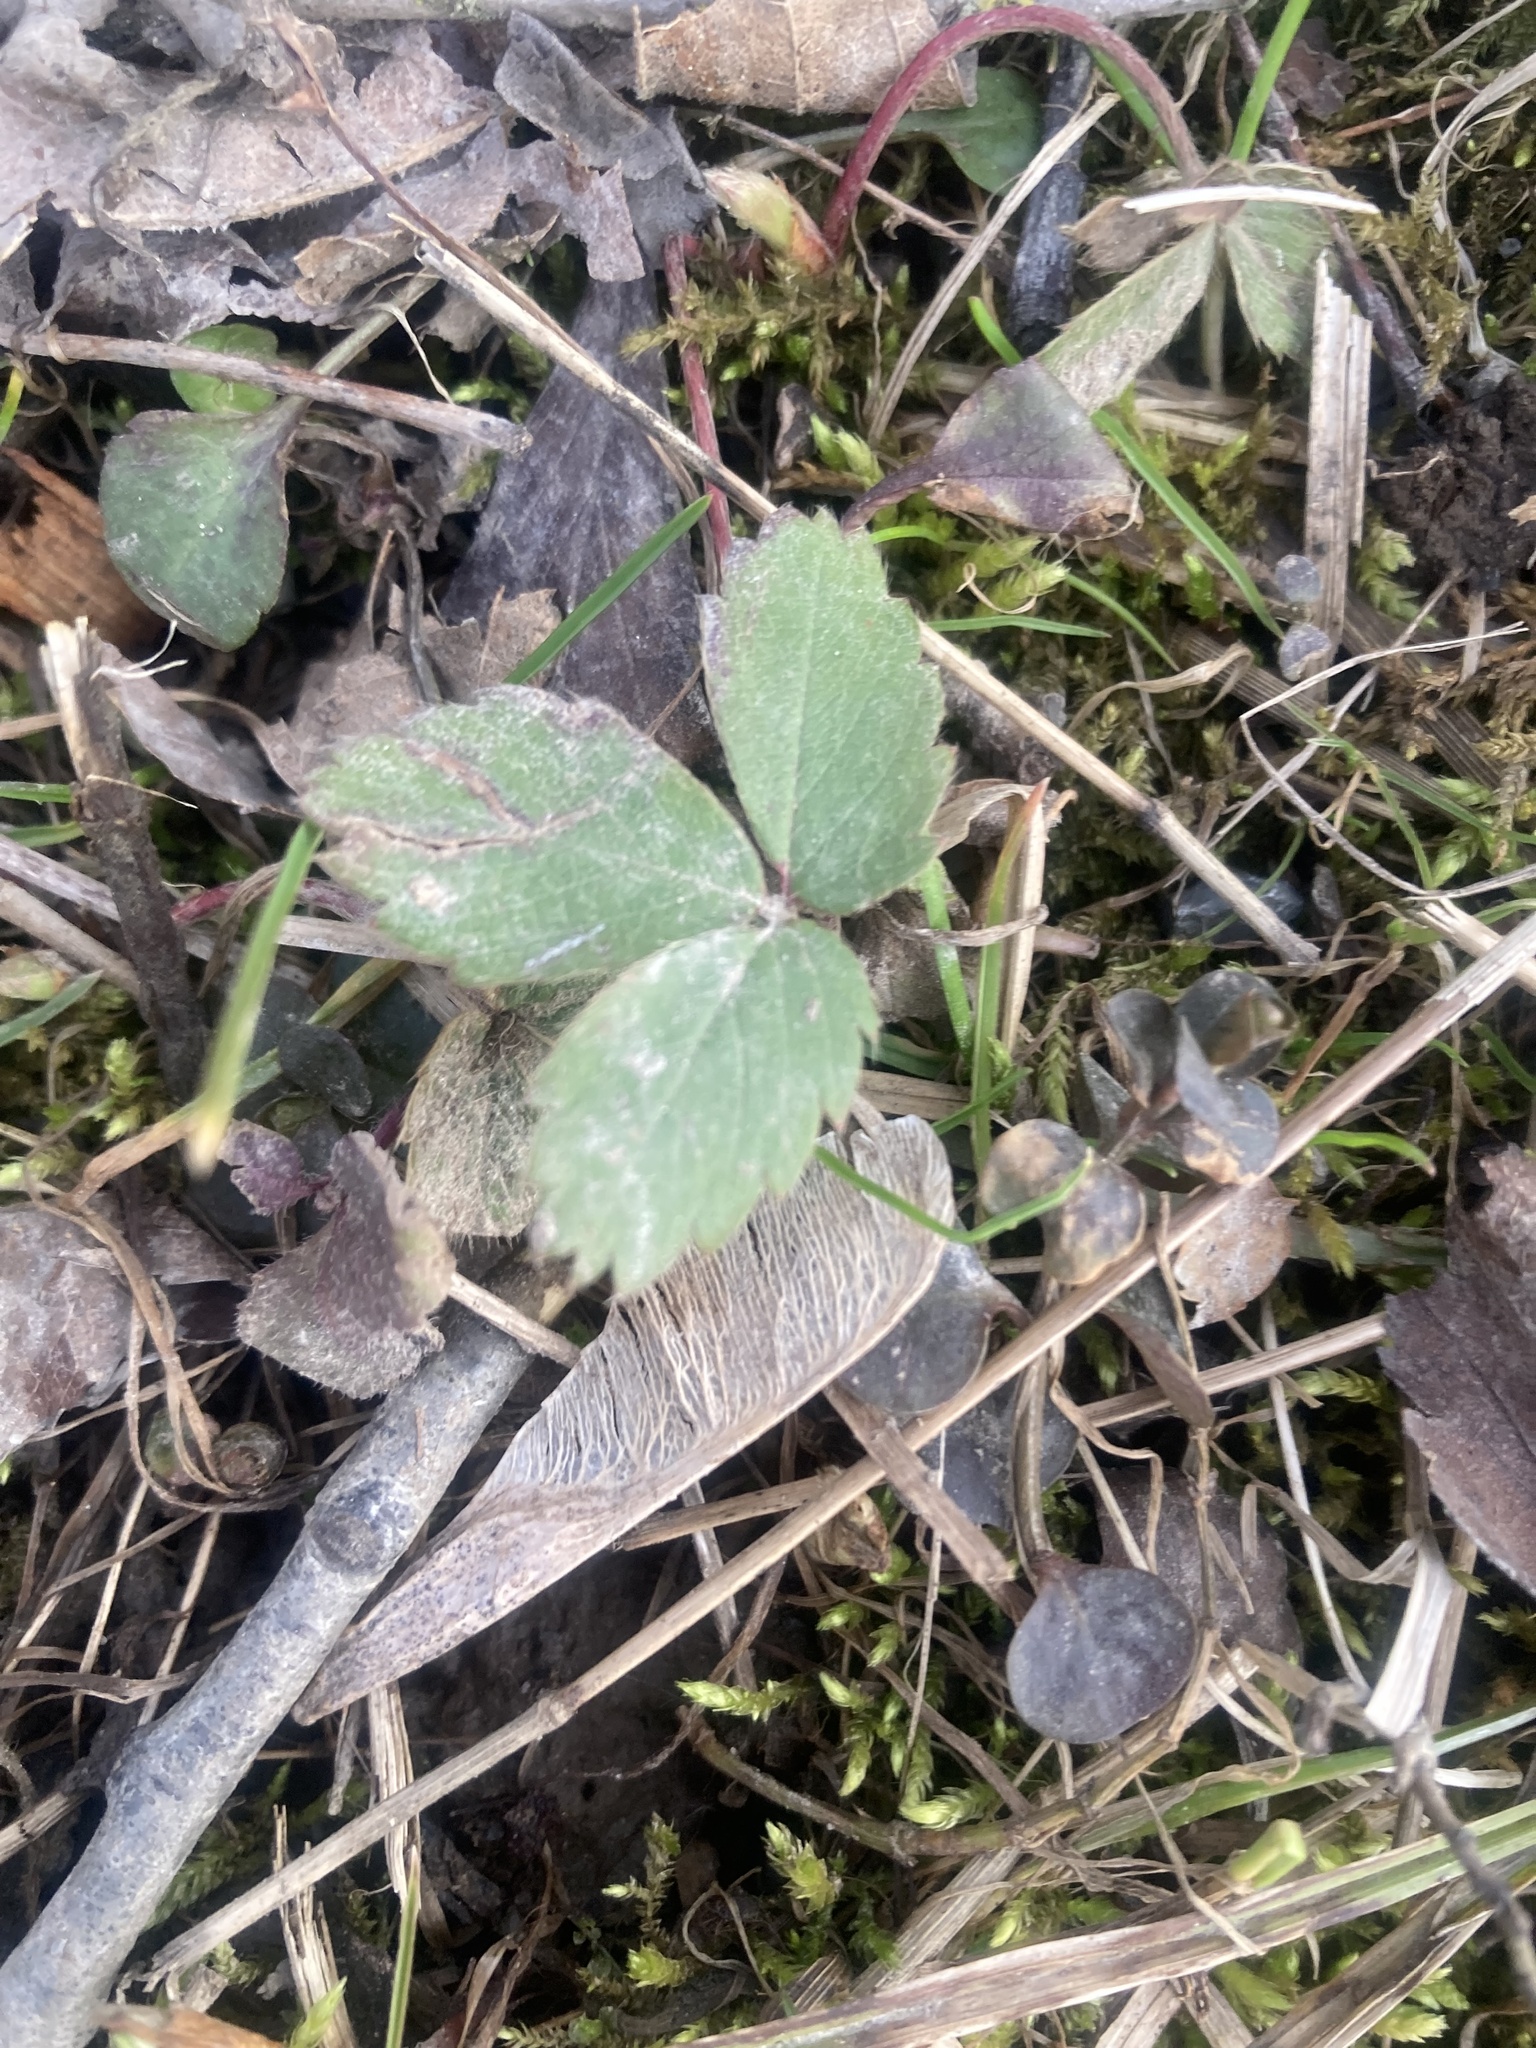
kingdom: Plantae
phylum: Tracheophyta
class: Magnoliopsida
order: Rosales
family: Rosaceae
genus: Fragaria
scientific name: Fragaria virginiana
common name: Thickleaved wild strawberry
